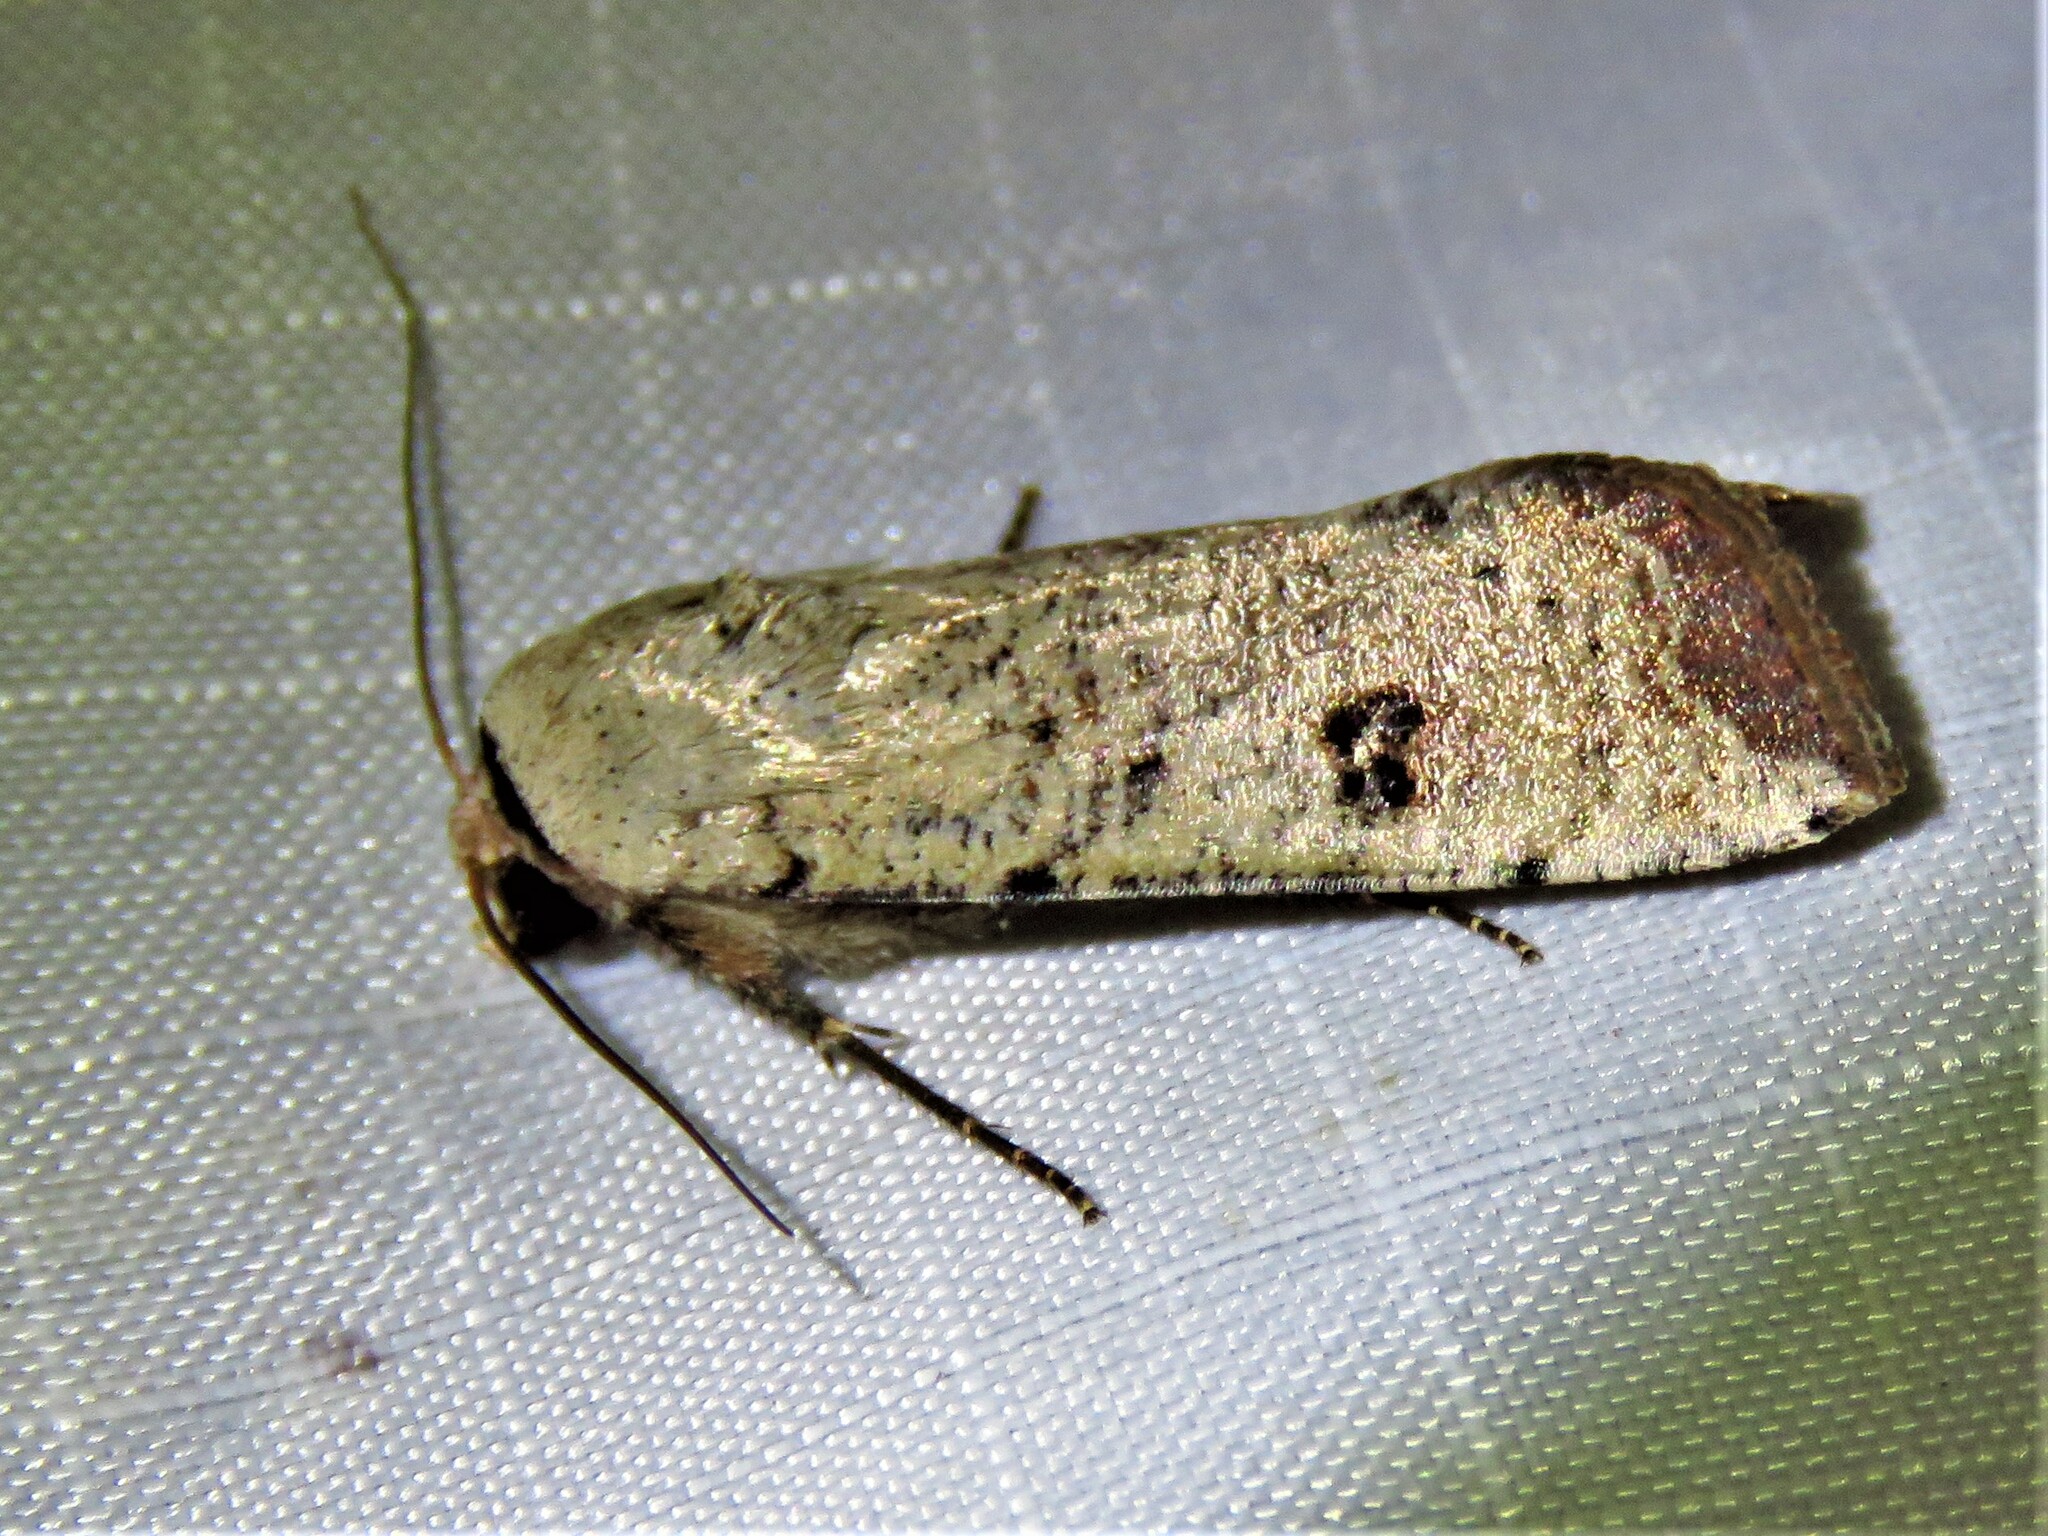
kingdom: Animalia
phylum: Arthropoda
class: Insecta
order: Lepidoptera
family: Noctuidae
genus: Anicla
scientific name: Anicla infecta
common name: Green cutworm
